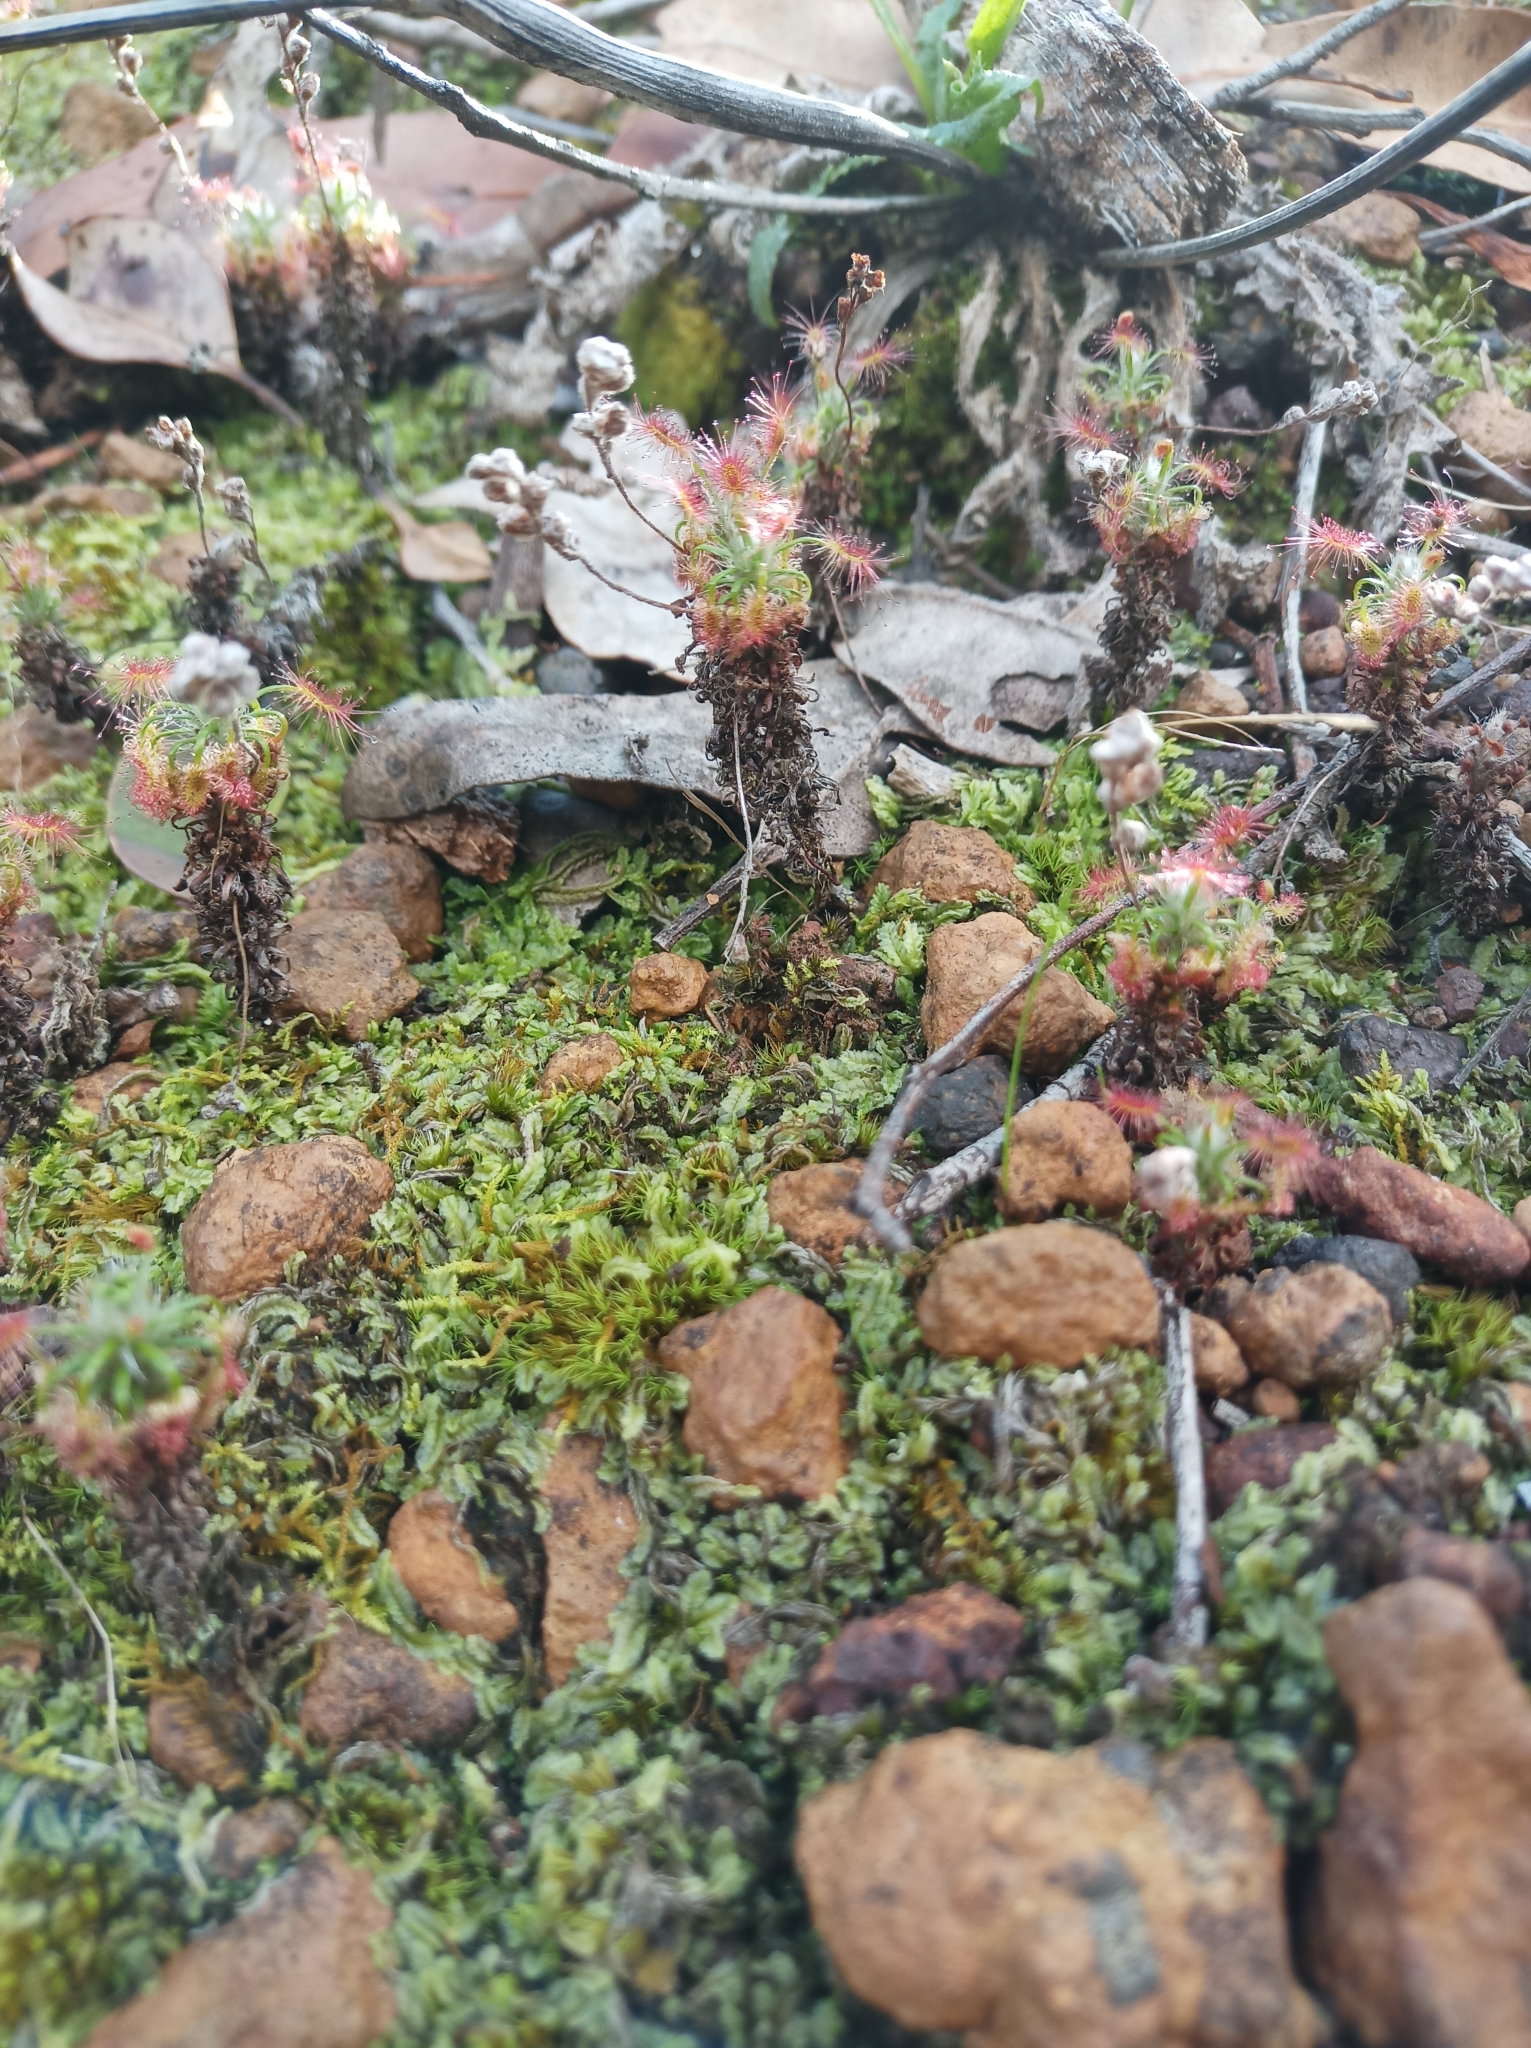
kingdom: Plantae
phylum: Tracheophyta
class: Magnoliopsida
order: Caryophyllales
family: Droseraceae
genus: Drosera
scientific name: Drosera lasiantha
